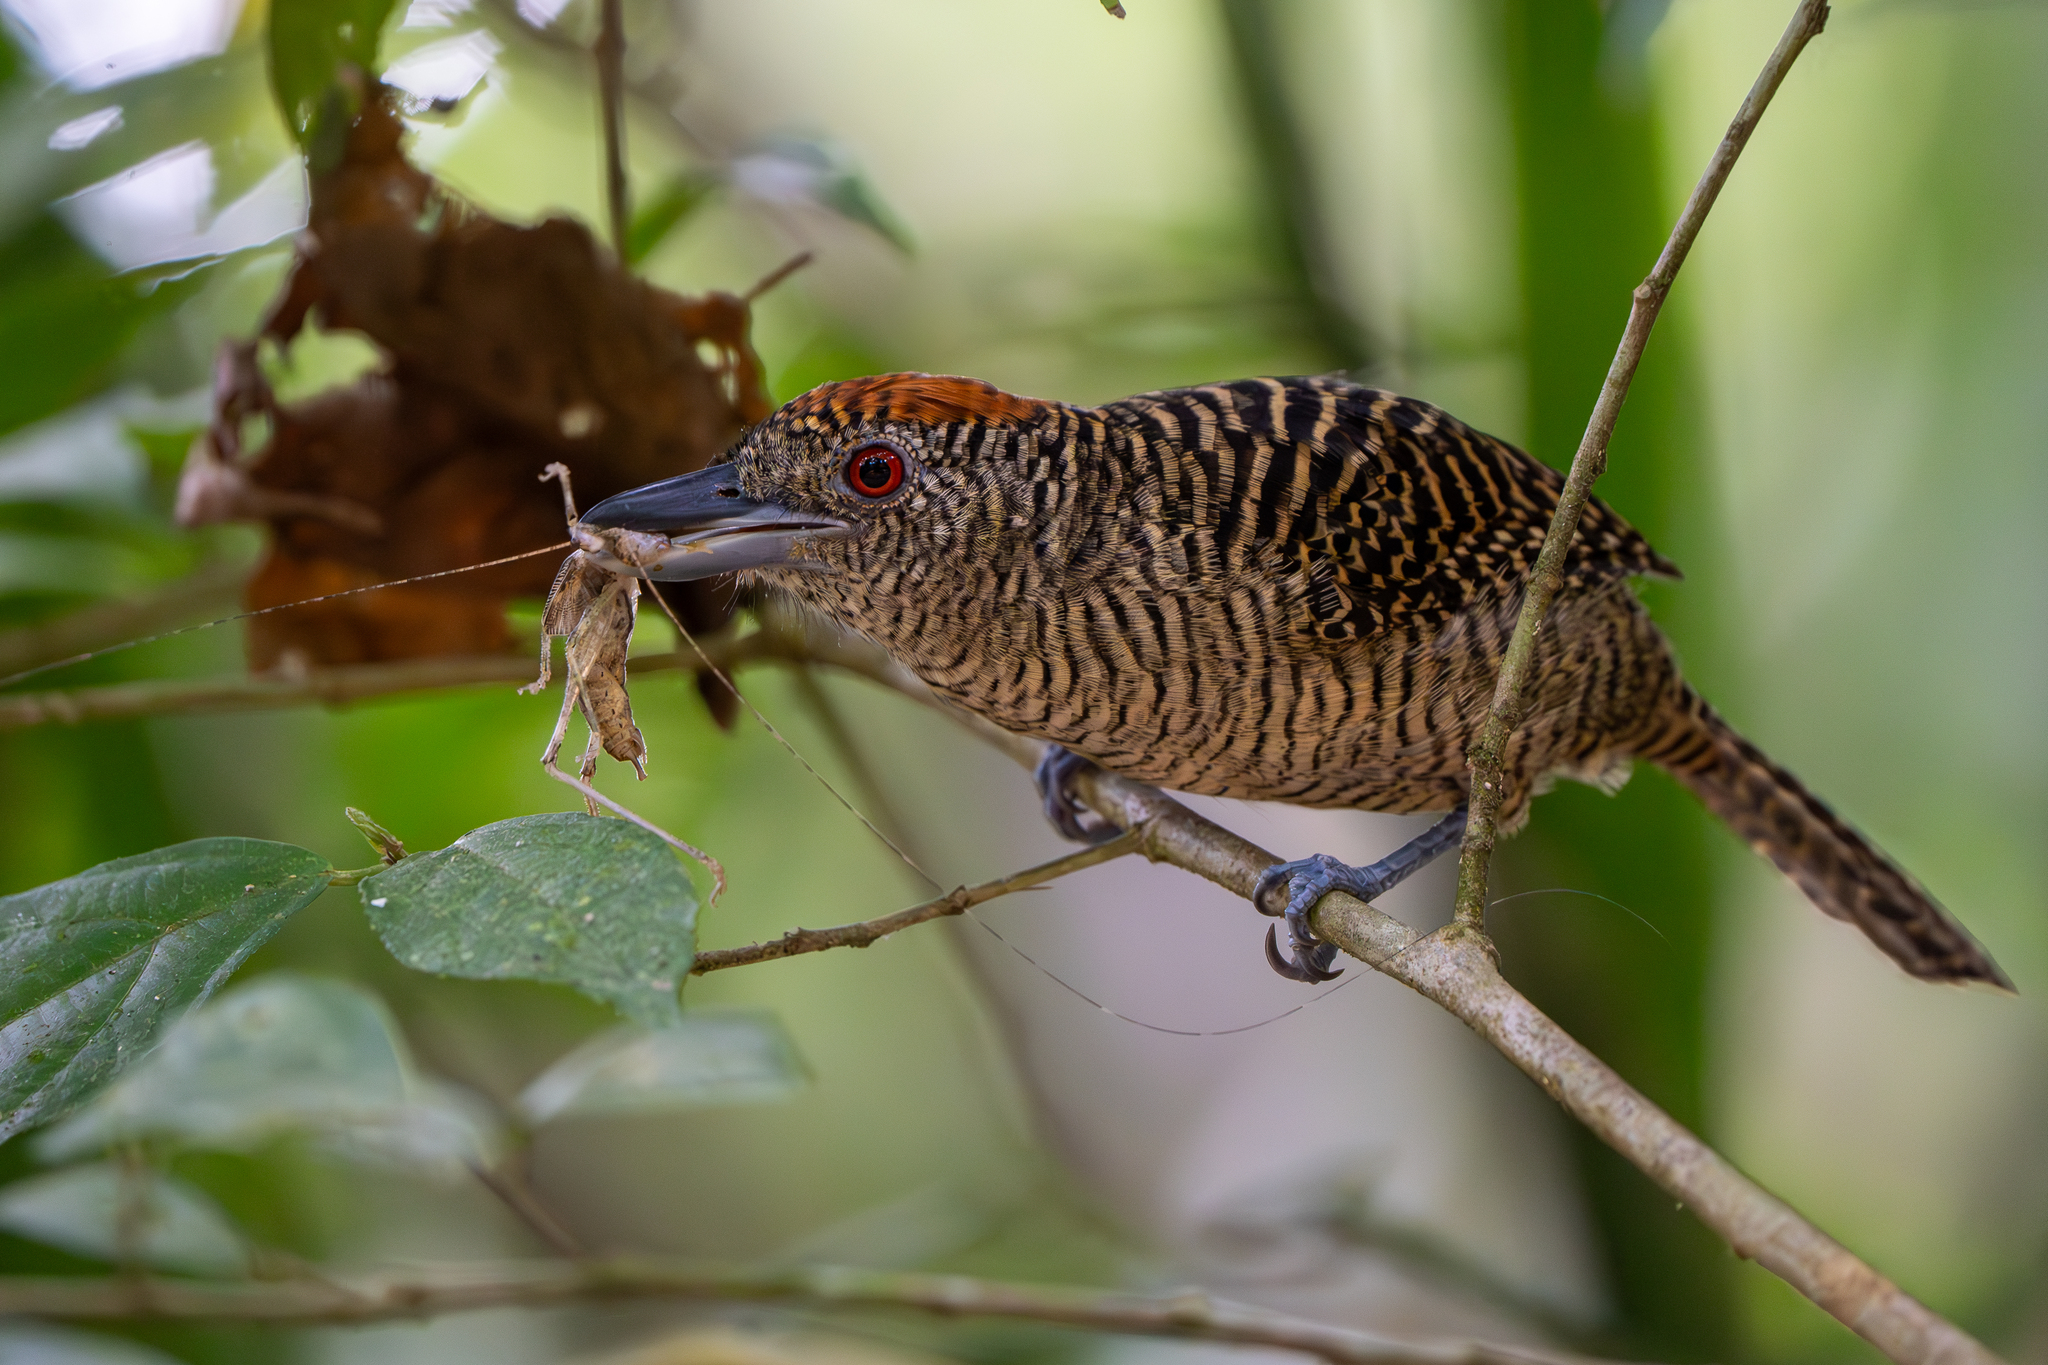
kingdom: Animalia
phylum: Chordata
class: Aves
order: Passeriformes
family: Thamnophilidae
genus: Cymbilaimus
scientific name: Cymbilaimus lineatus
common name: Fasciated antshrike
